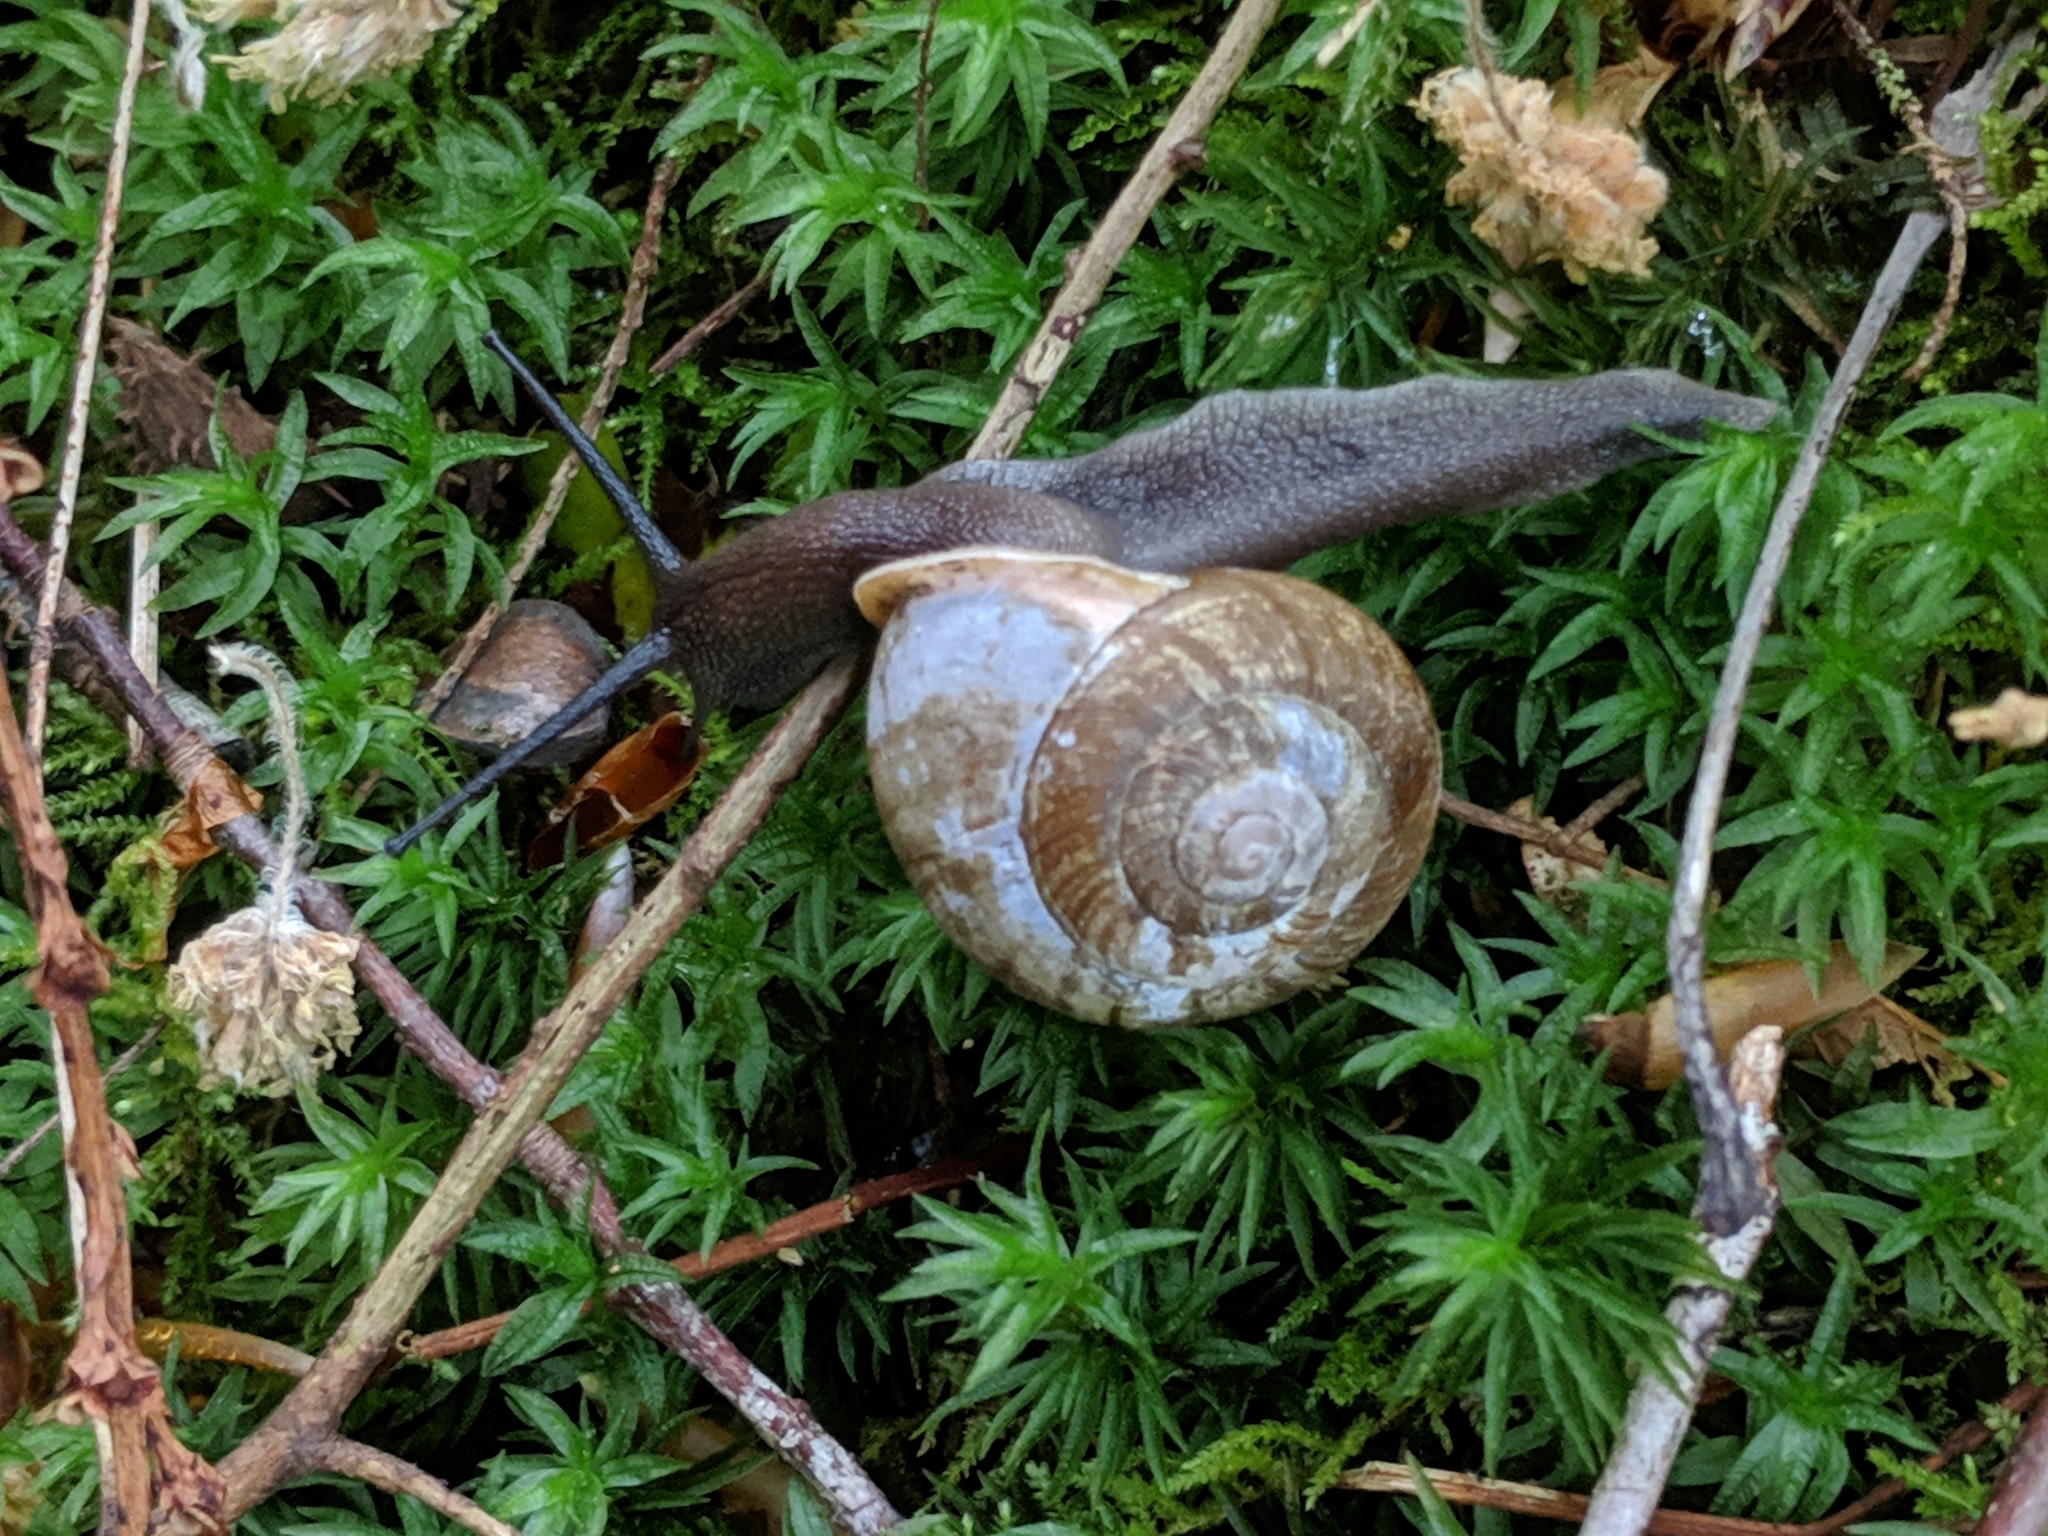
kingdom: Animalia
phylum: Mollusca
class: Gastropoda
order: Stylommatophora
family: Polygyridae
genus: Neohelix
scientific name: Neohelix albolabris
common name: Eastern whitelip
